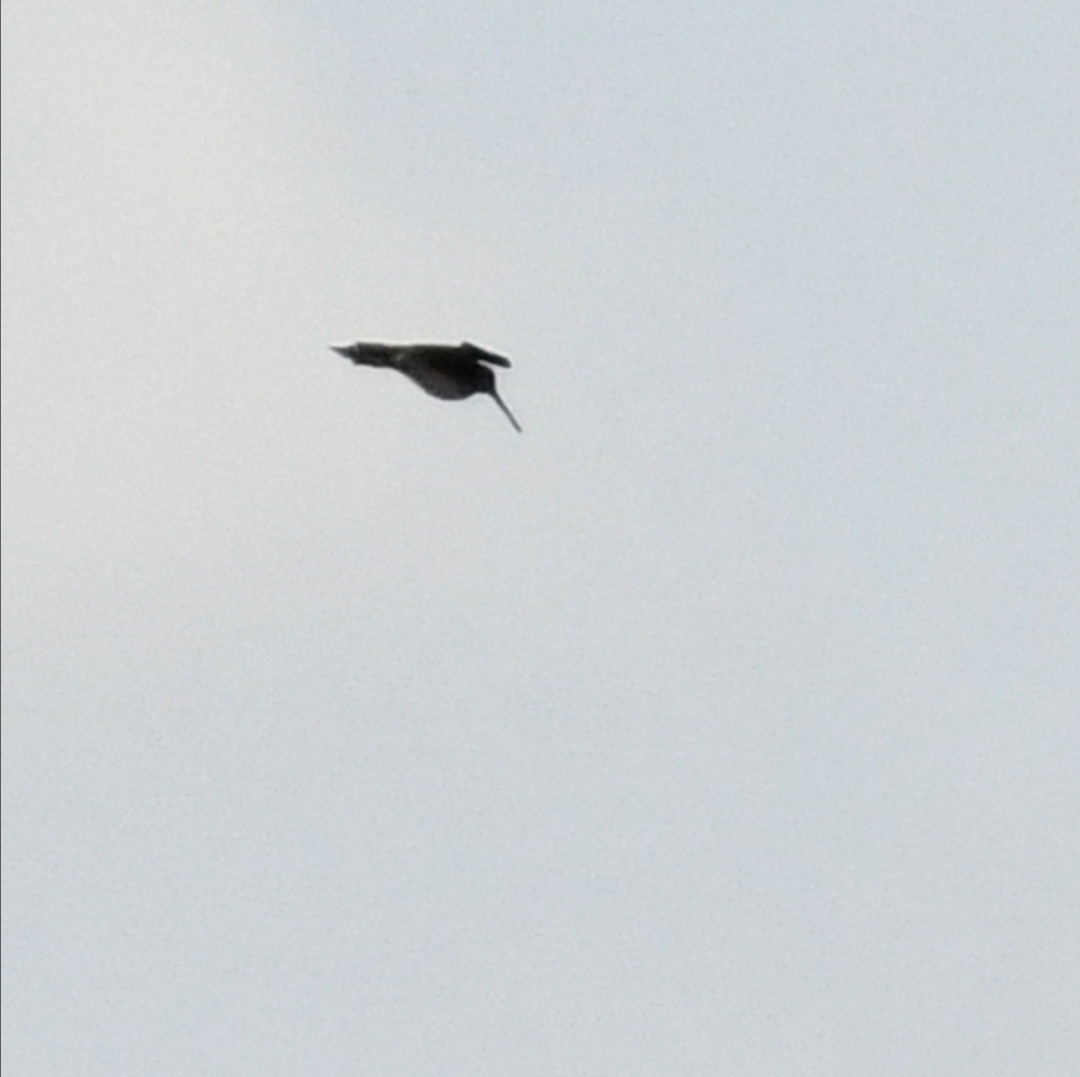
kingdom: Animalia
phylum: Chordata
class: Aves
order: Charadriiformes
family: Scolopacidae
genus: Gallinago
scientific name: Gallinago delicata
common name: Wilson's snipe
